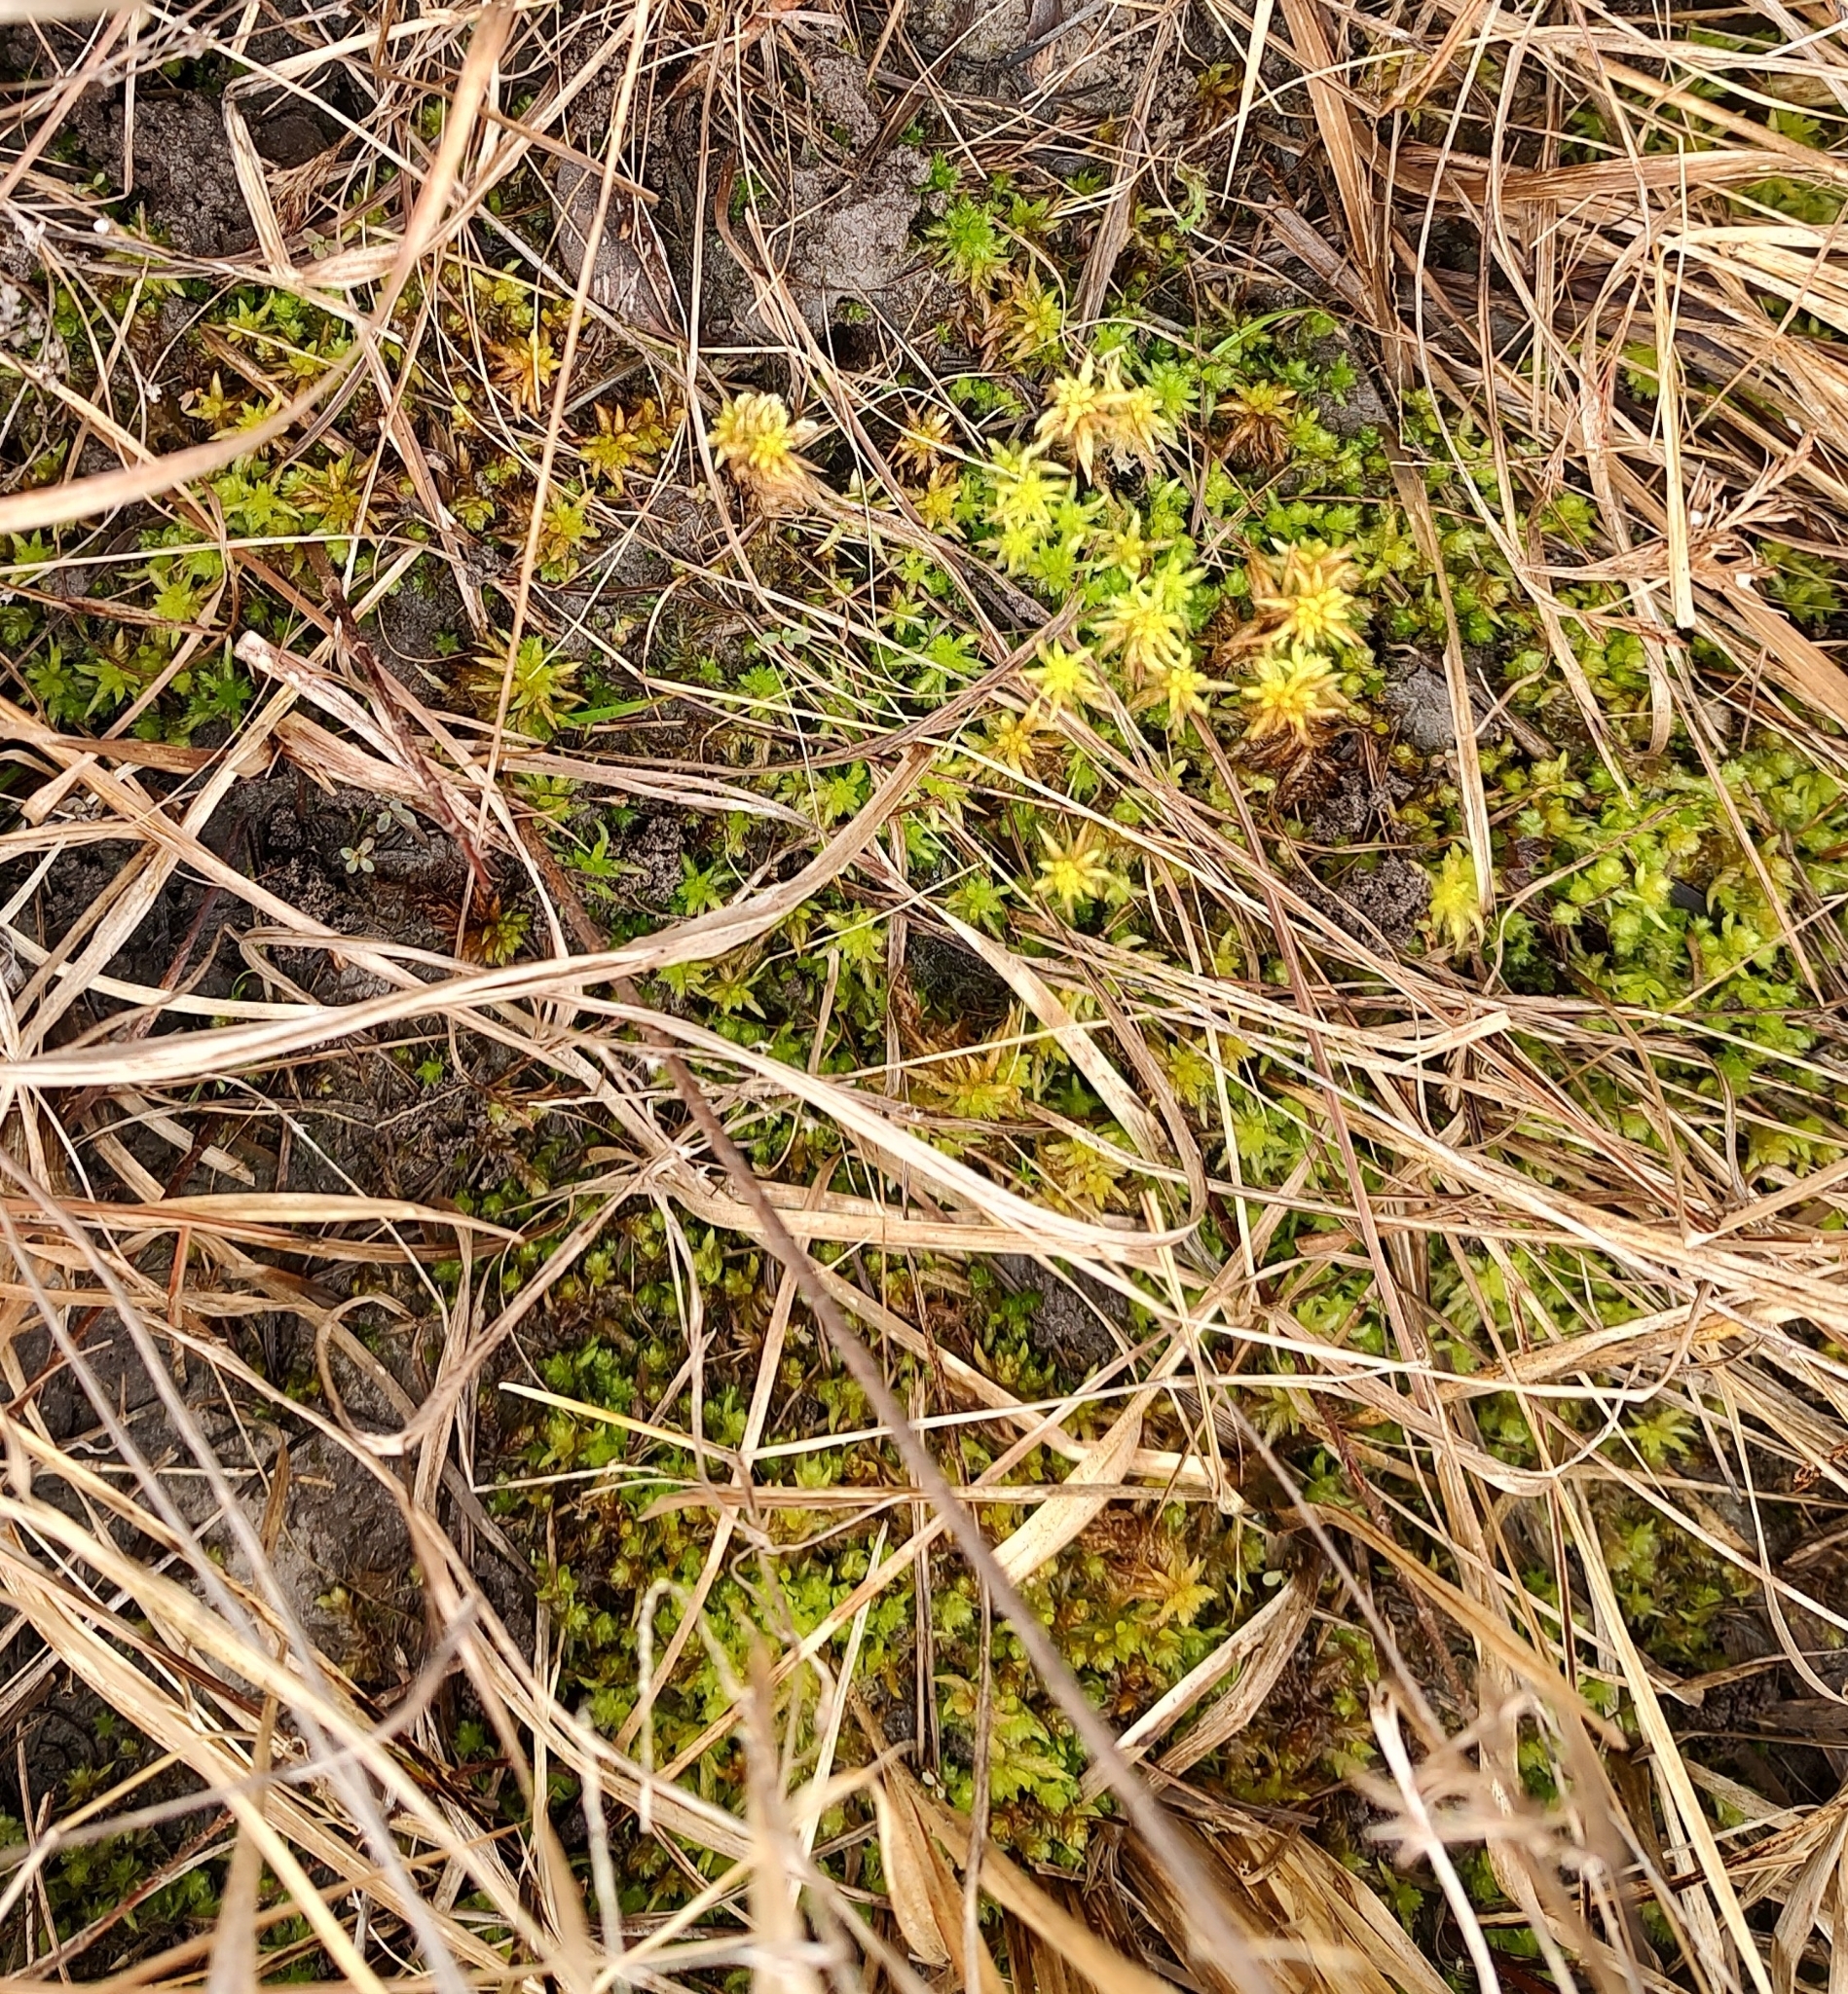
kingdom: Plantae
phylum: Bryophyta
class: Sphagnopsida
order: Sphagnales
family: Sphagnaceae
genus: Sphagnum
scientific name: Sphagnum lescurii
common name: Lesquereux's peat moss
